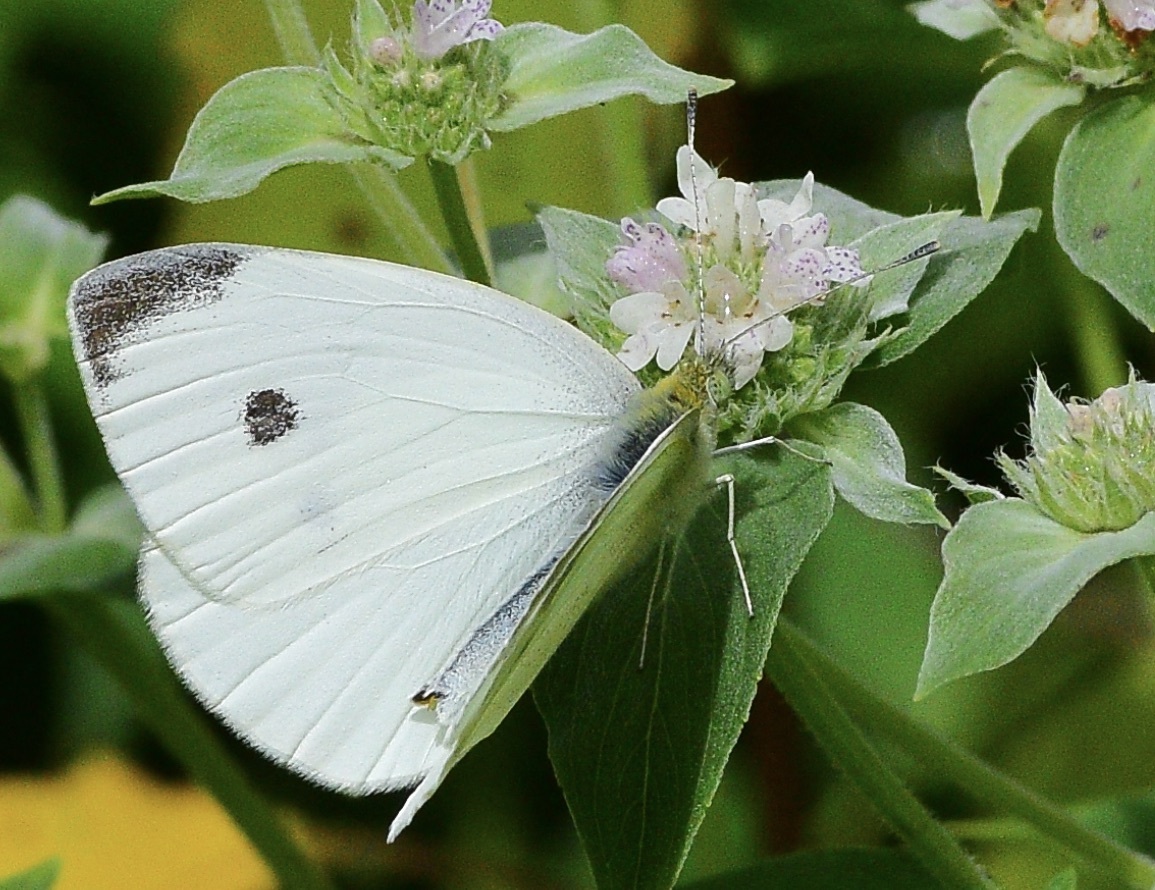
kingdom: Animalia
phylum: Arthropoda
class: Insecta
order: Lepidoptera
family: Pieridae
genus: Pieris
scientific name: Pieris rapae
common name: Small white
